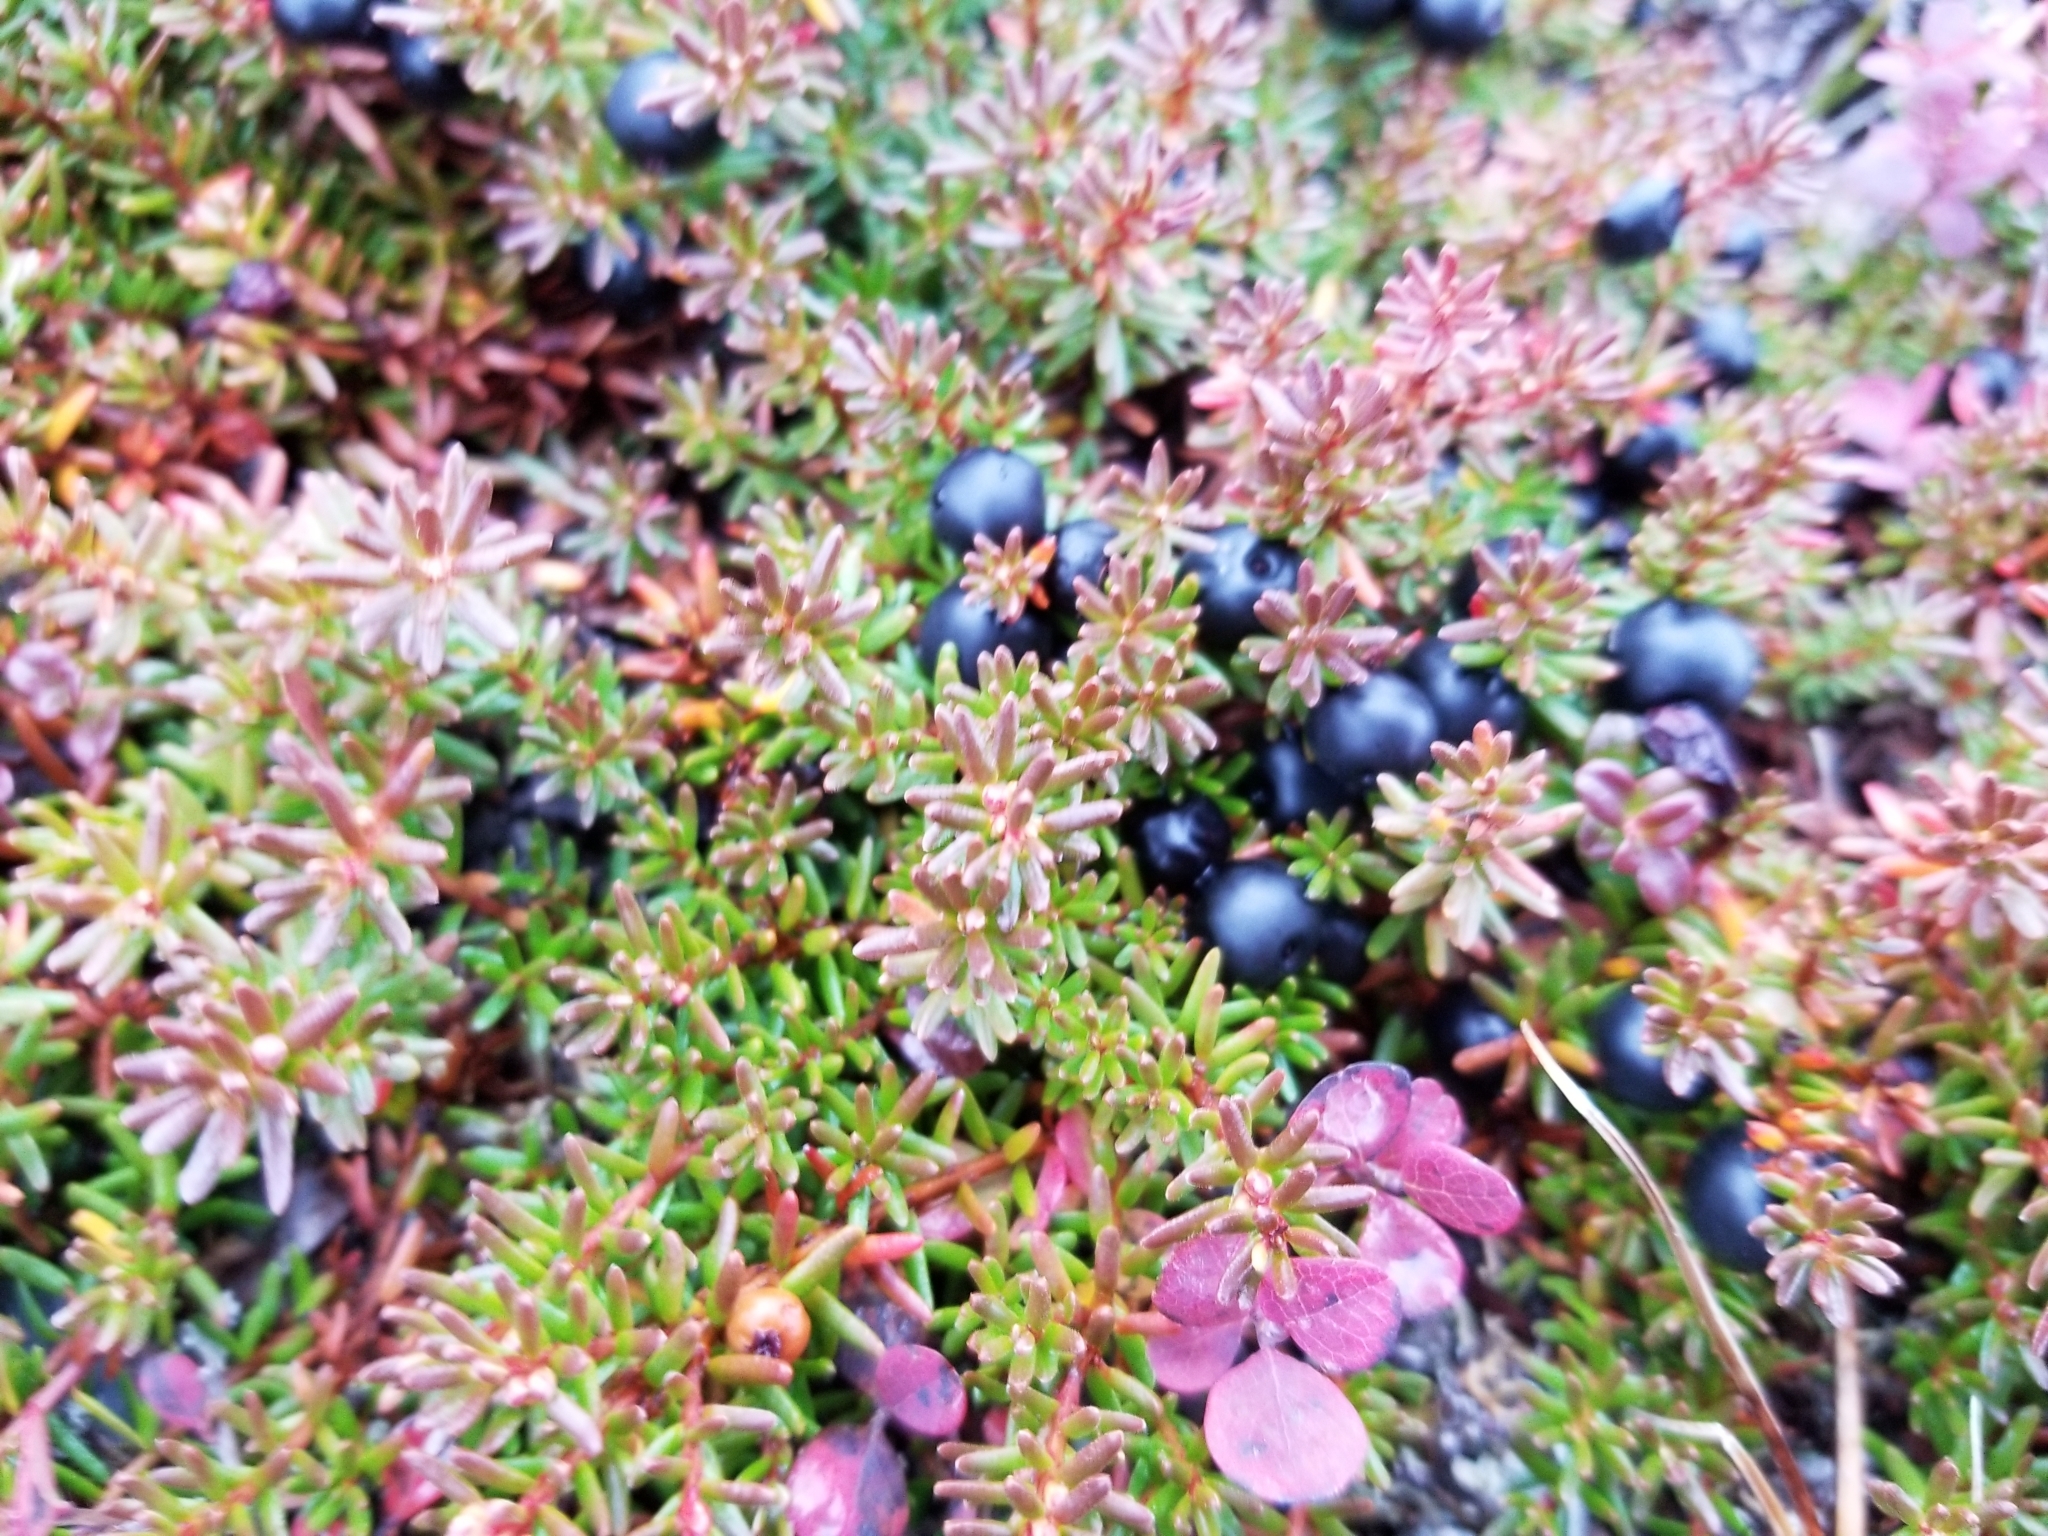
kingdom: Plantae
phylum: Tracheophyta
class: Magnoliopsida
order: Ericales
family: Ericaceae
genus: Empetrum
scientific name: Empetrum nigrum
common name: Black crowberry
